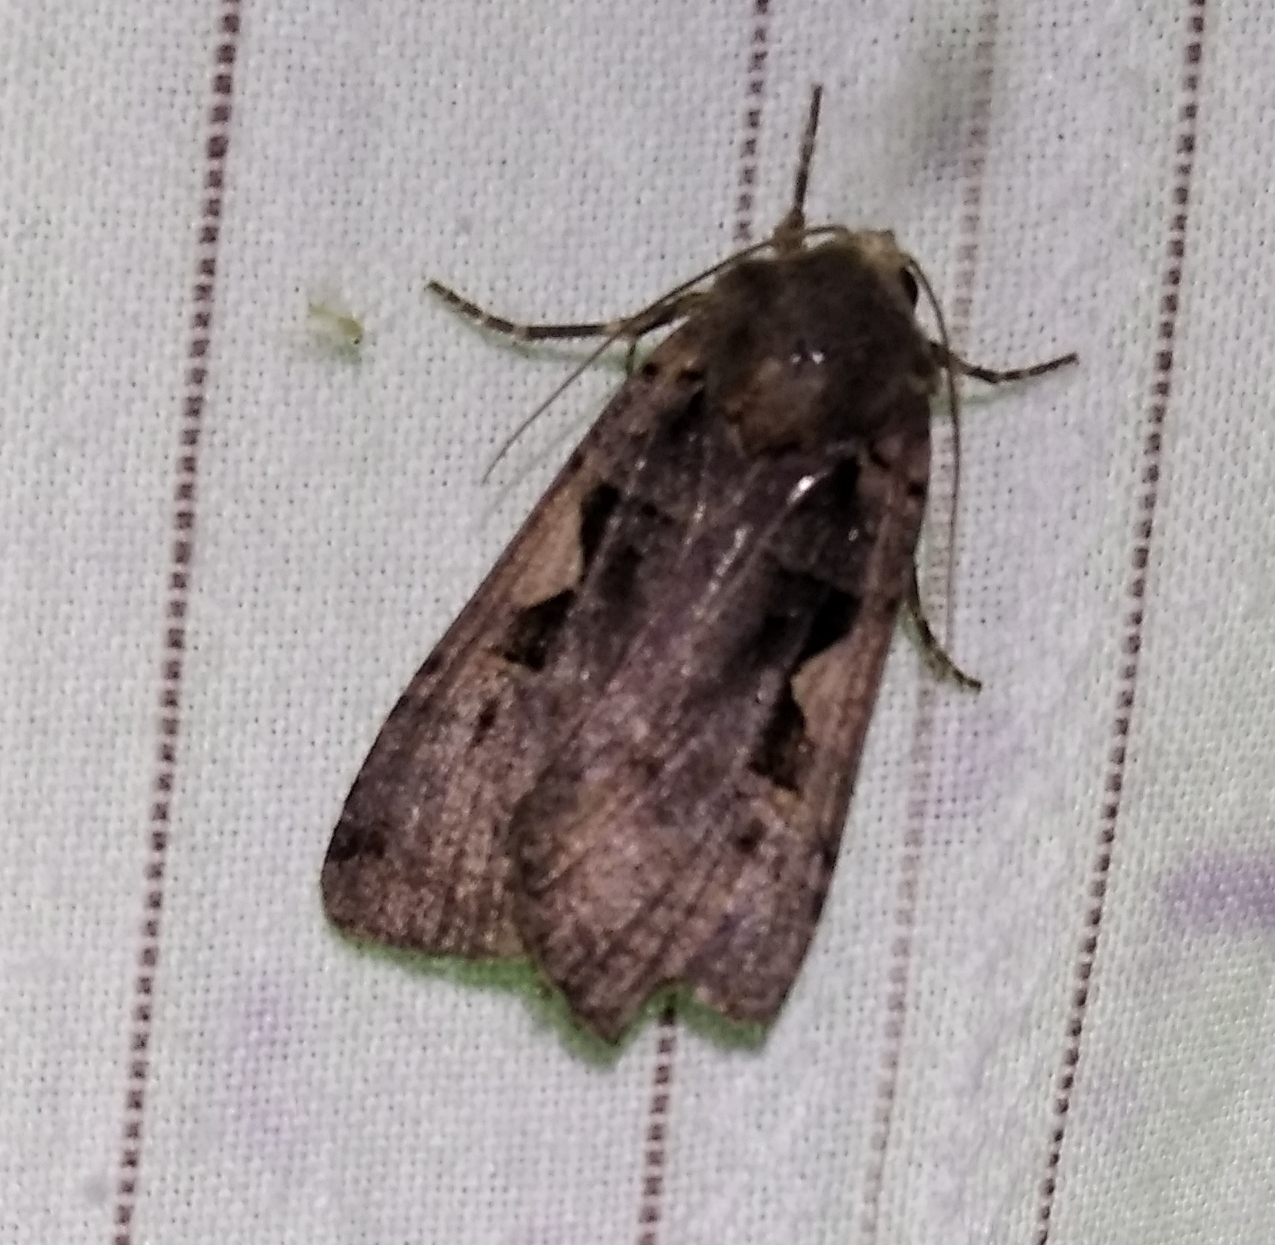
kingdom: Animalia
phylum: Arthropoda
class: Insecta
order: Lepidoptera
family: Noctuidae
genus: Xestia
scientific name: Xestia c-nigrum
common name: Setaceous hebrew character
